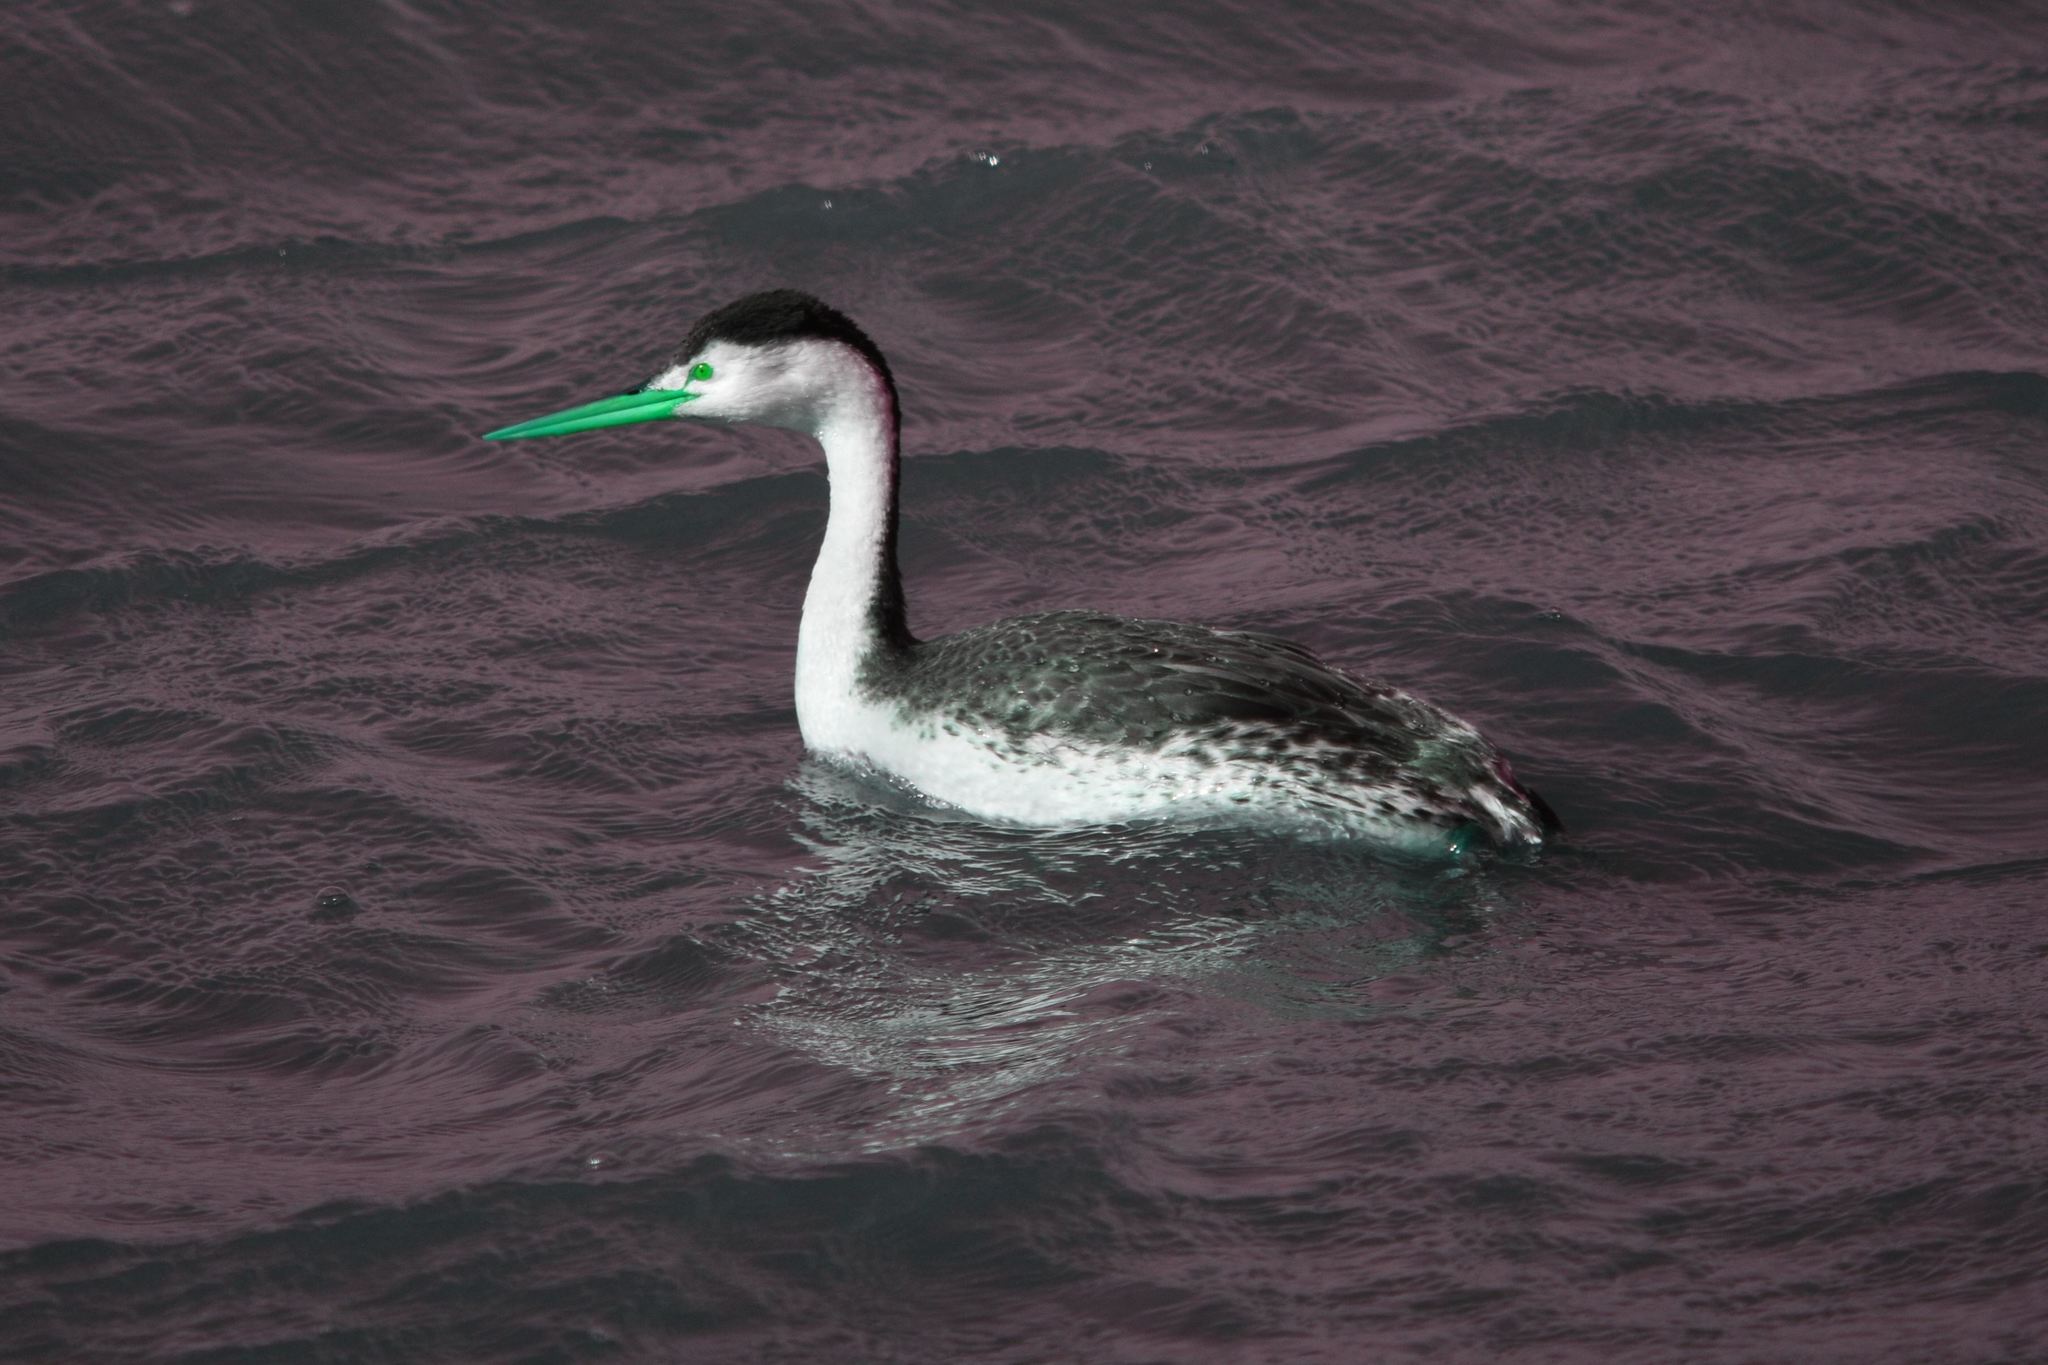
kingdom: Animalia
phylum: Chordata
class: Aves
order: Podicipediformes
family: Podicipedidae
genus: Aechmophorus
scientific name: Aechmophorus clarkii
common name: Clark's grebe
